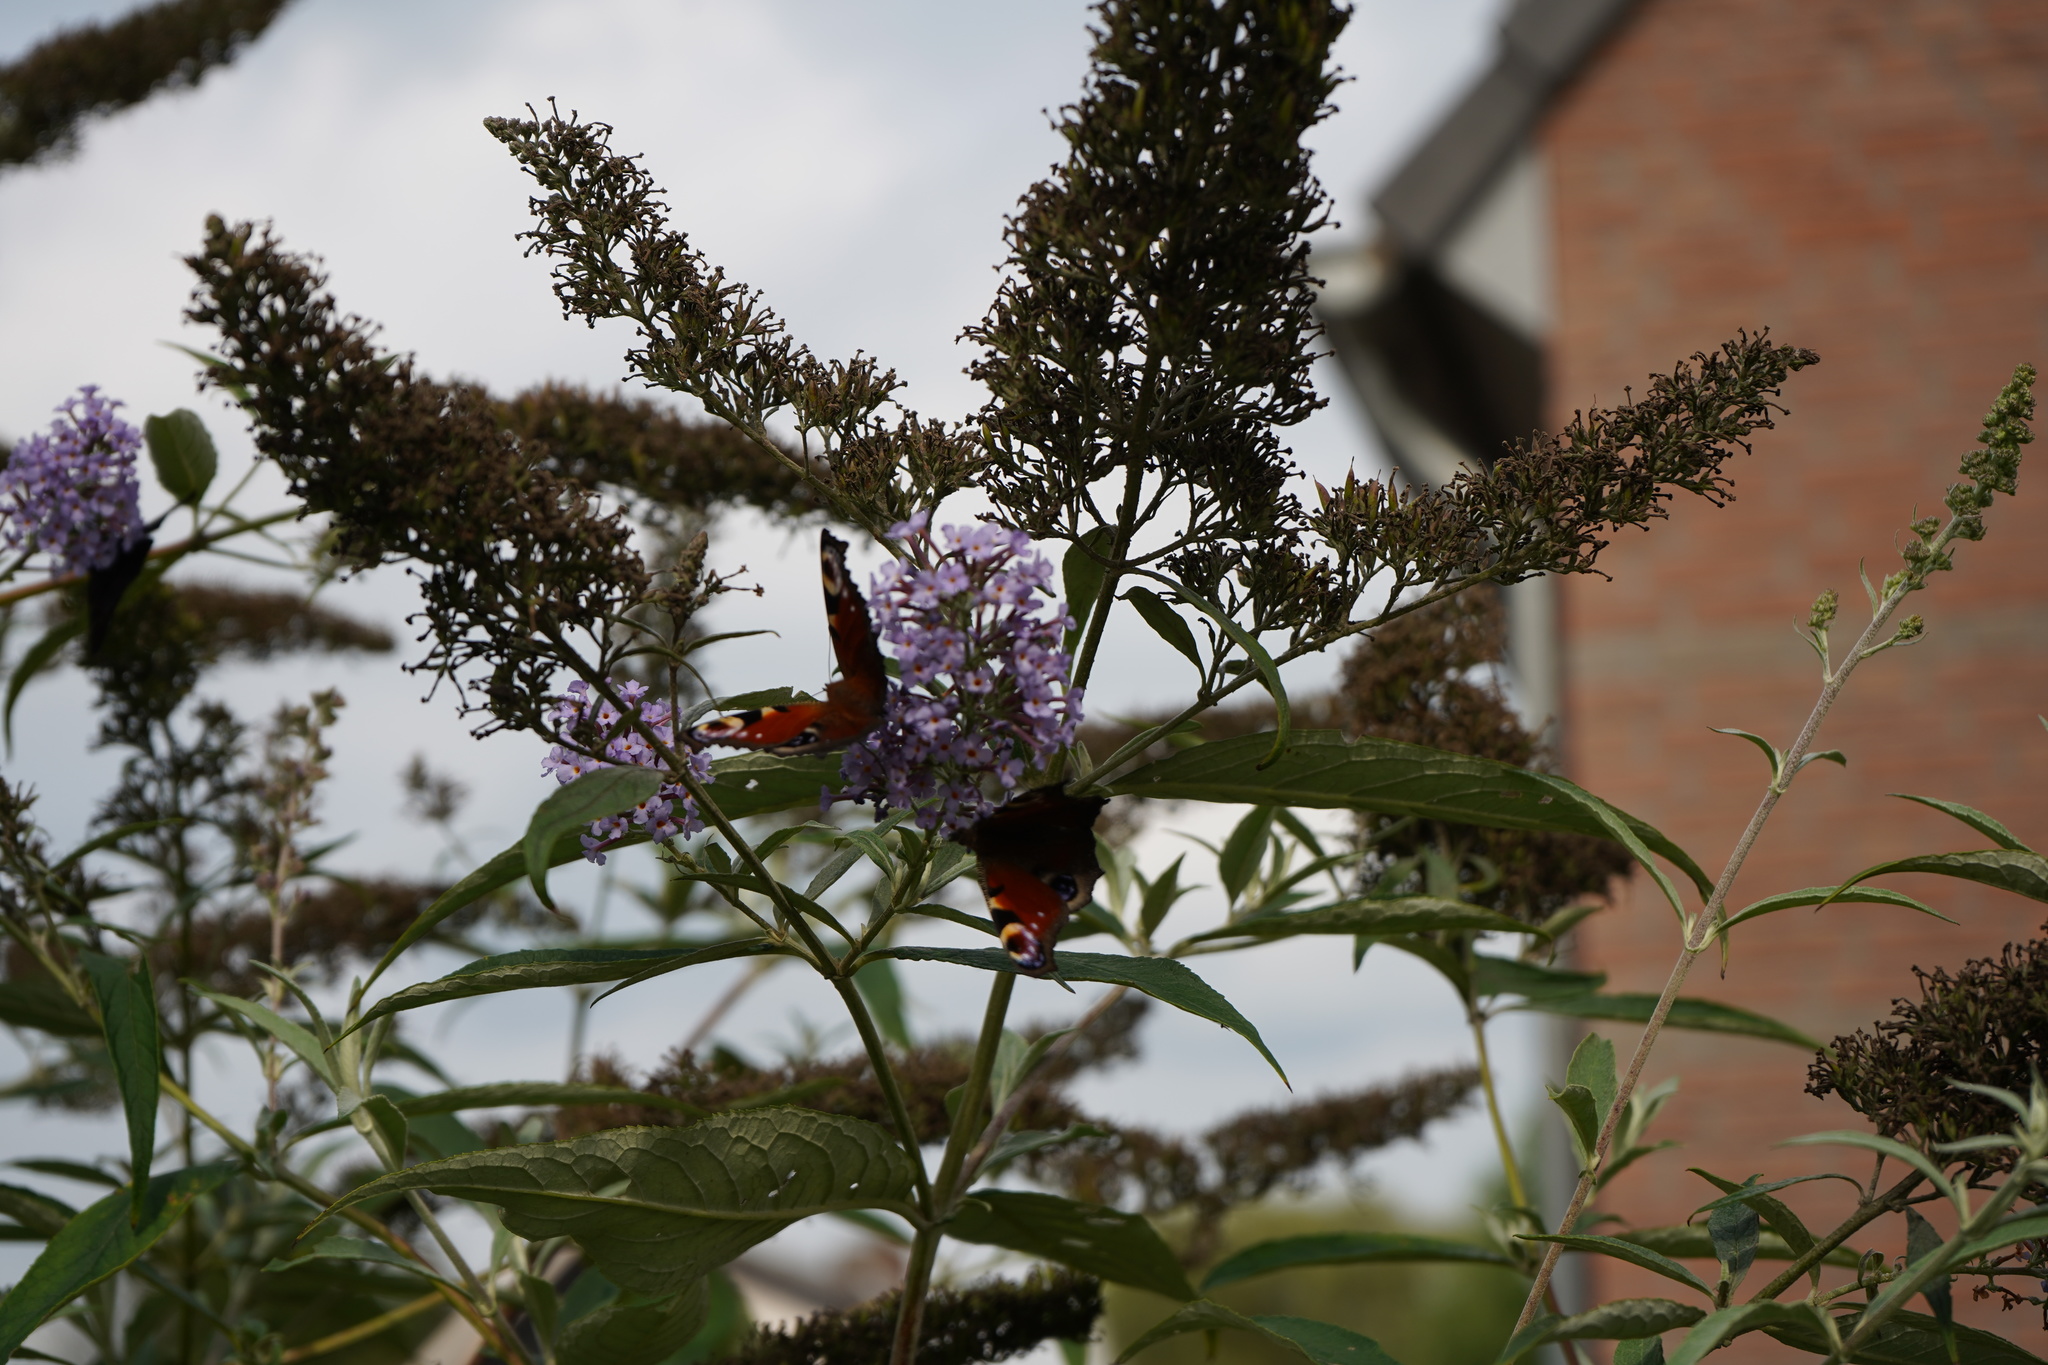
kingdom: Animalia
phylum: Arthropoda
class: Insecta
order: Lepidoptera
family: Nymphalidae
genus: Aglais
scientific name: Aglais io
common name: Peacock
